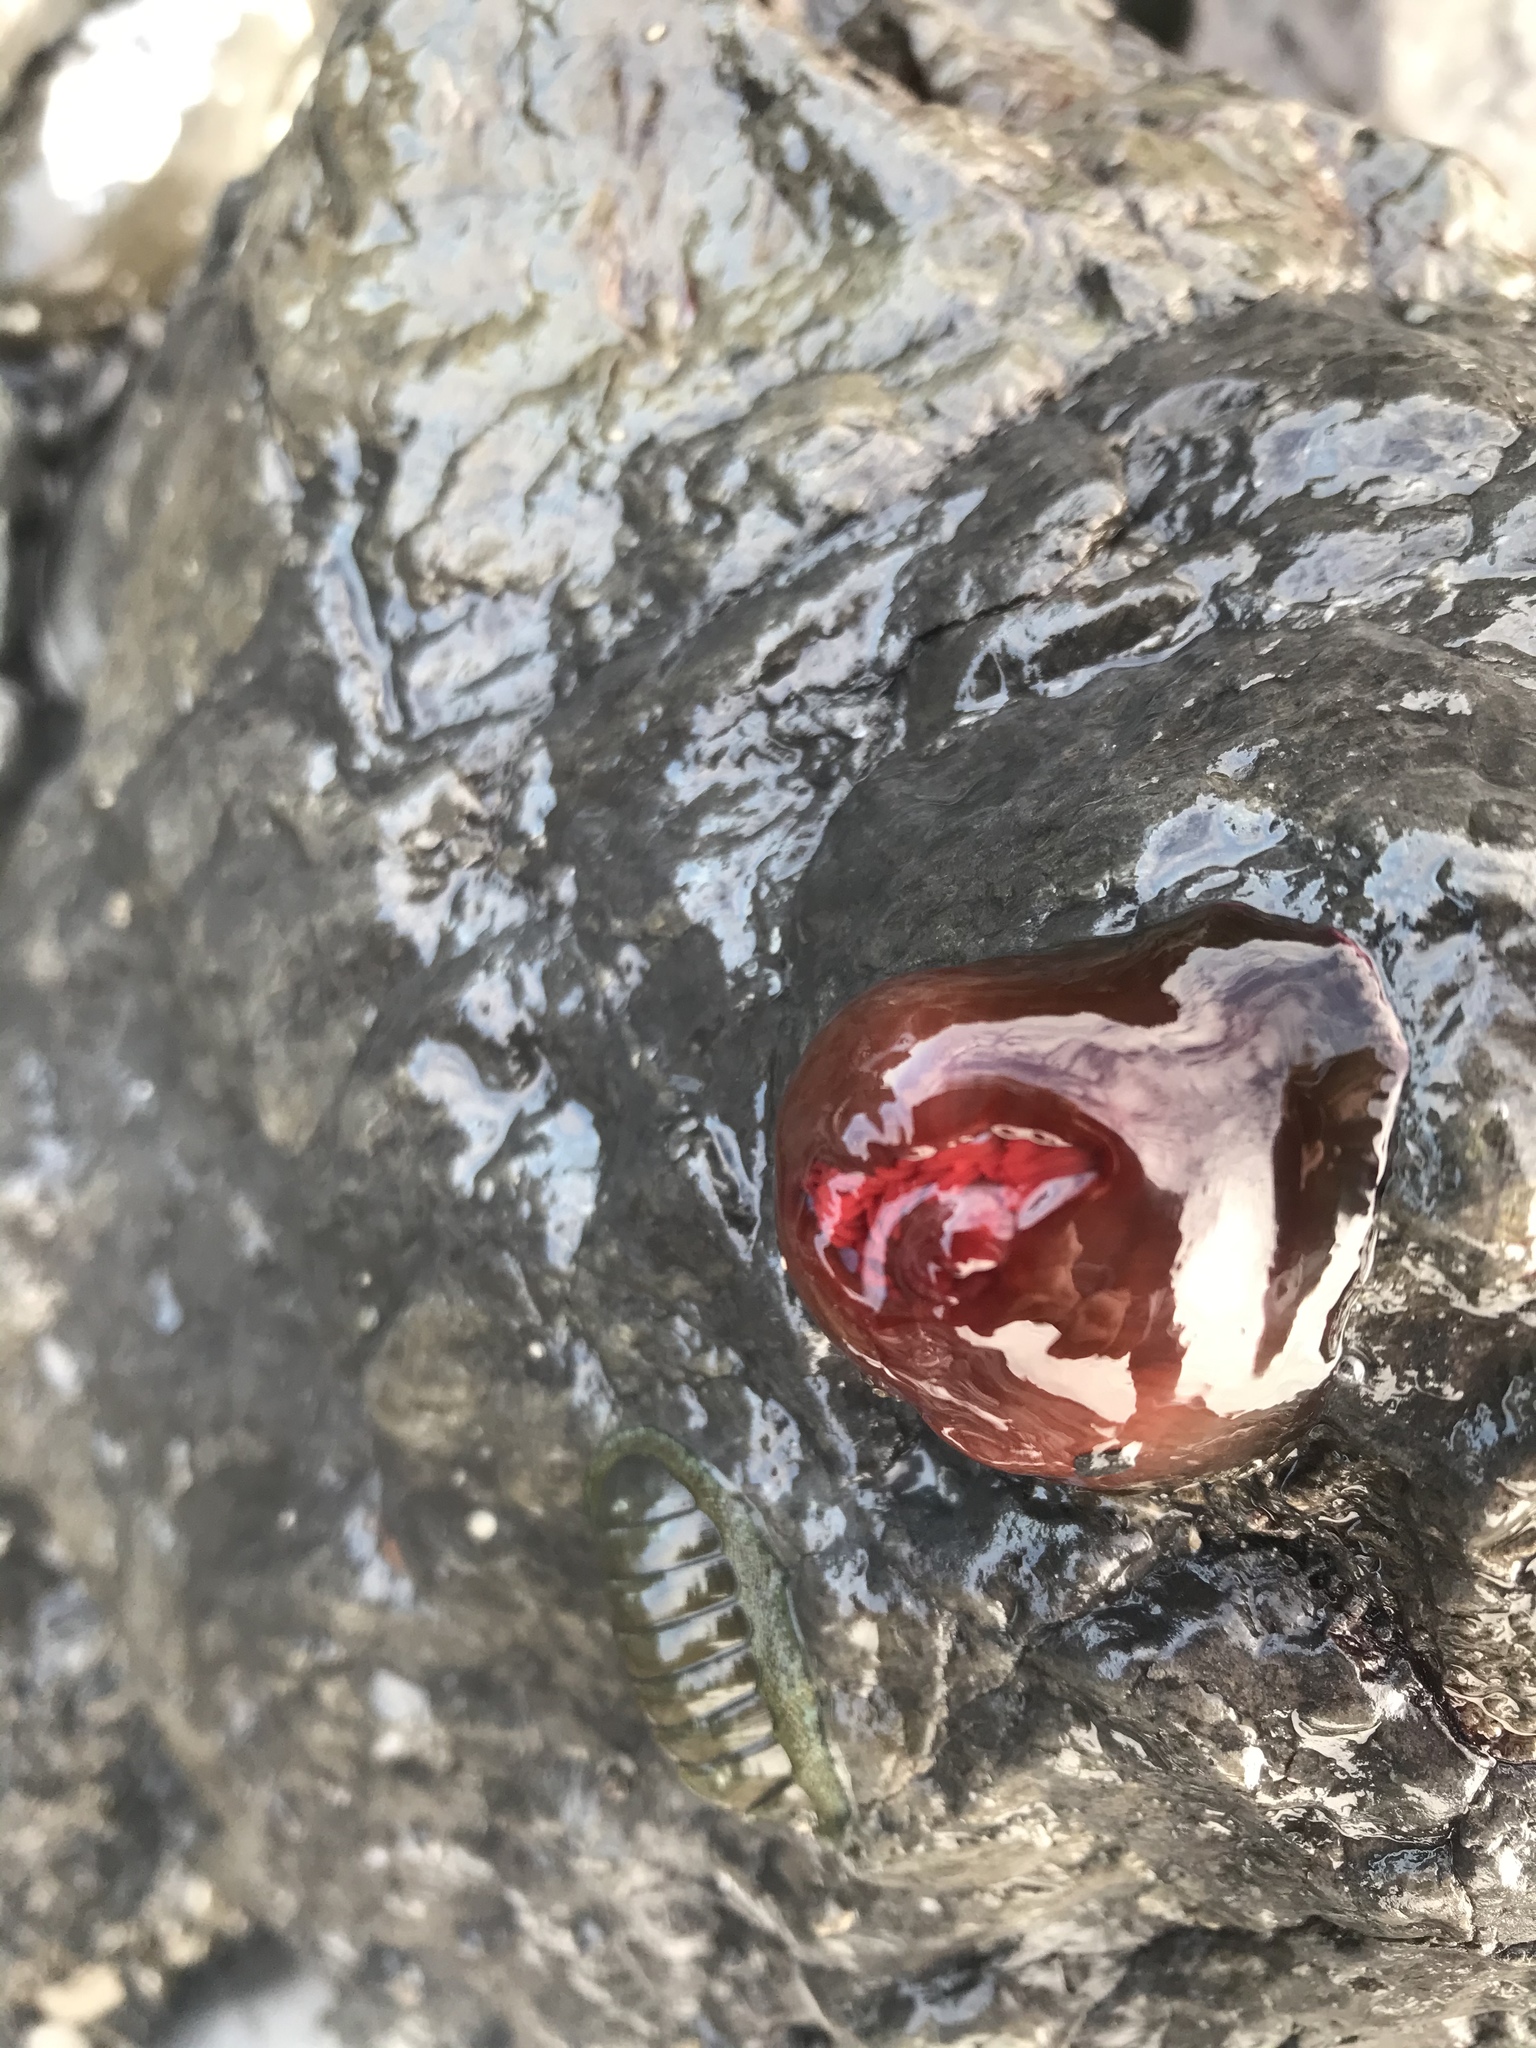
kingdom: Animalia
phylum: Cnidaria
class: Anthozoa
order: Actiniaria
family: Actiniidae
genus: Actinia
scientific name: Actinia tenebrosa
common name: Waratah anemone
